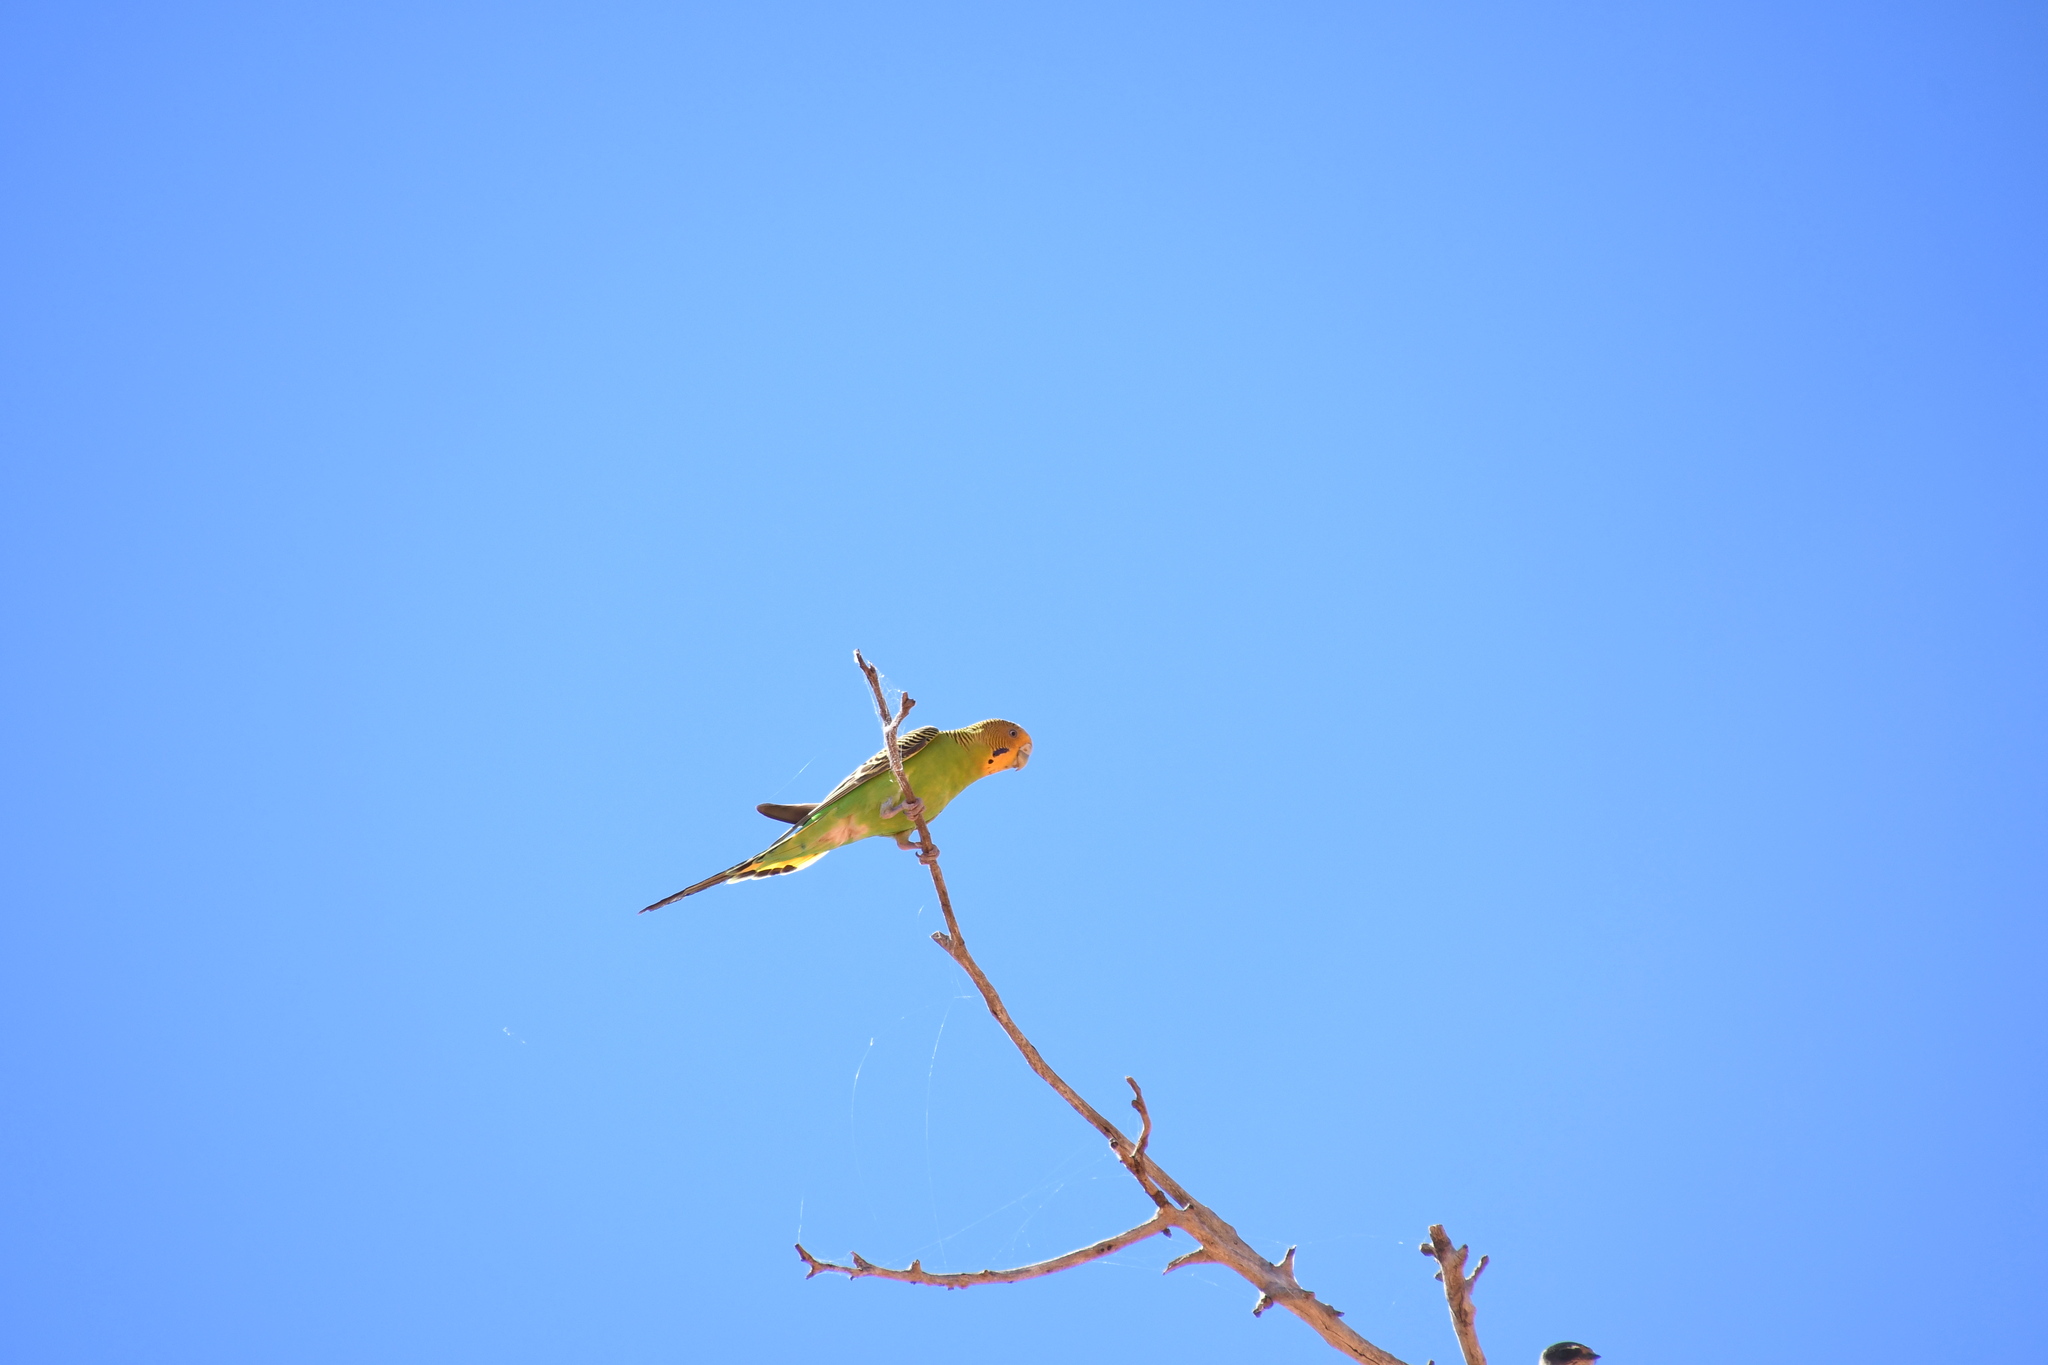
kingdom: Animalia
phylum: Chordata
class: Aves
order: Psittaciformes
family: Psittacidae
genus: Melopsittacus
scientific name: Melopsittacus undulatus
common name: Budgerigar
